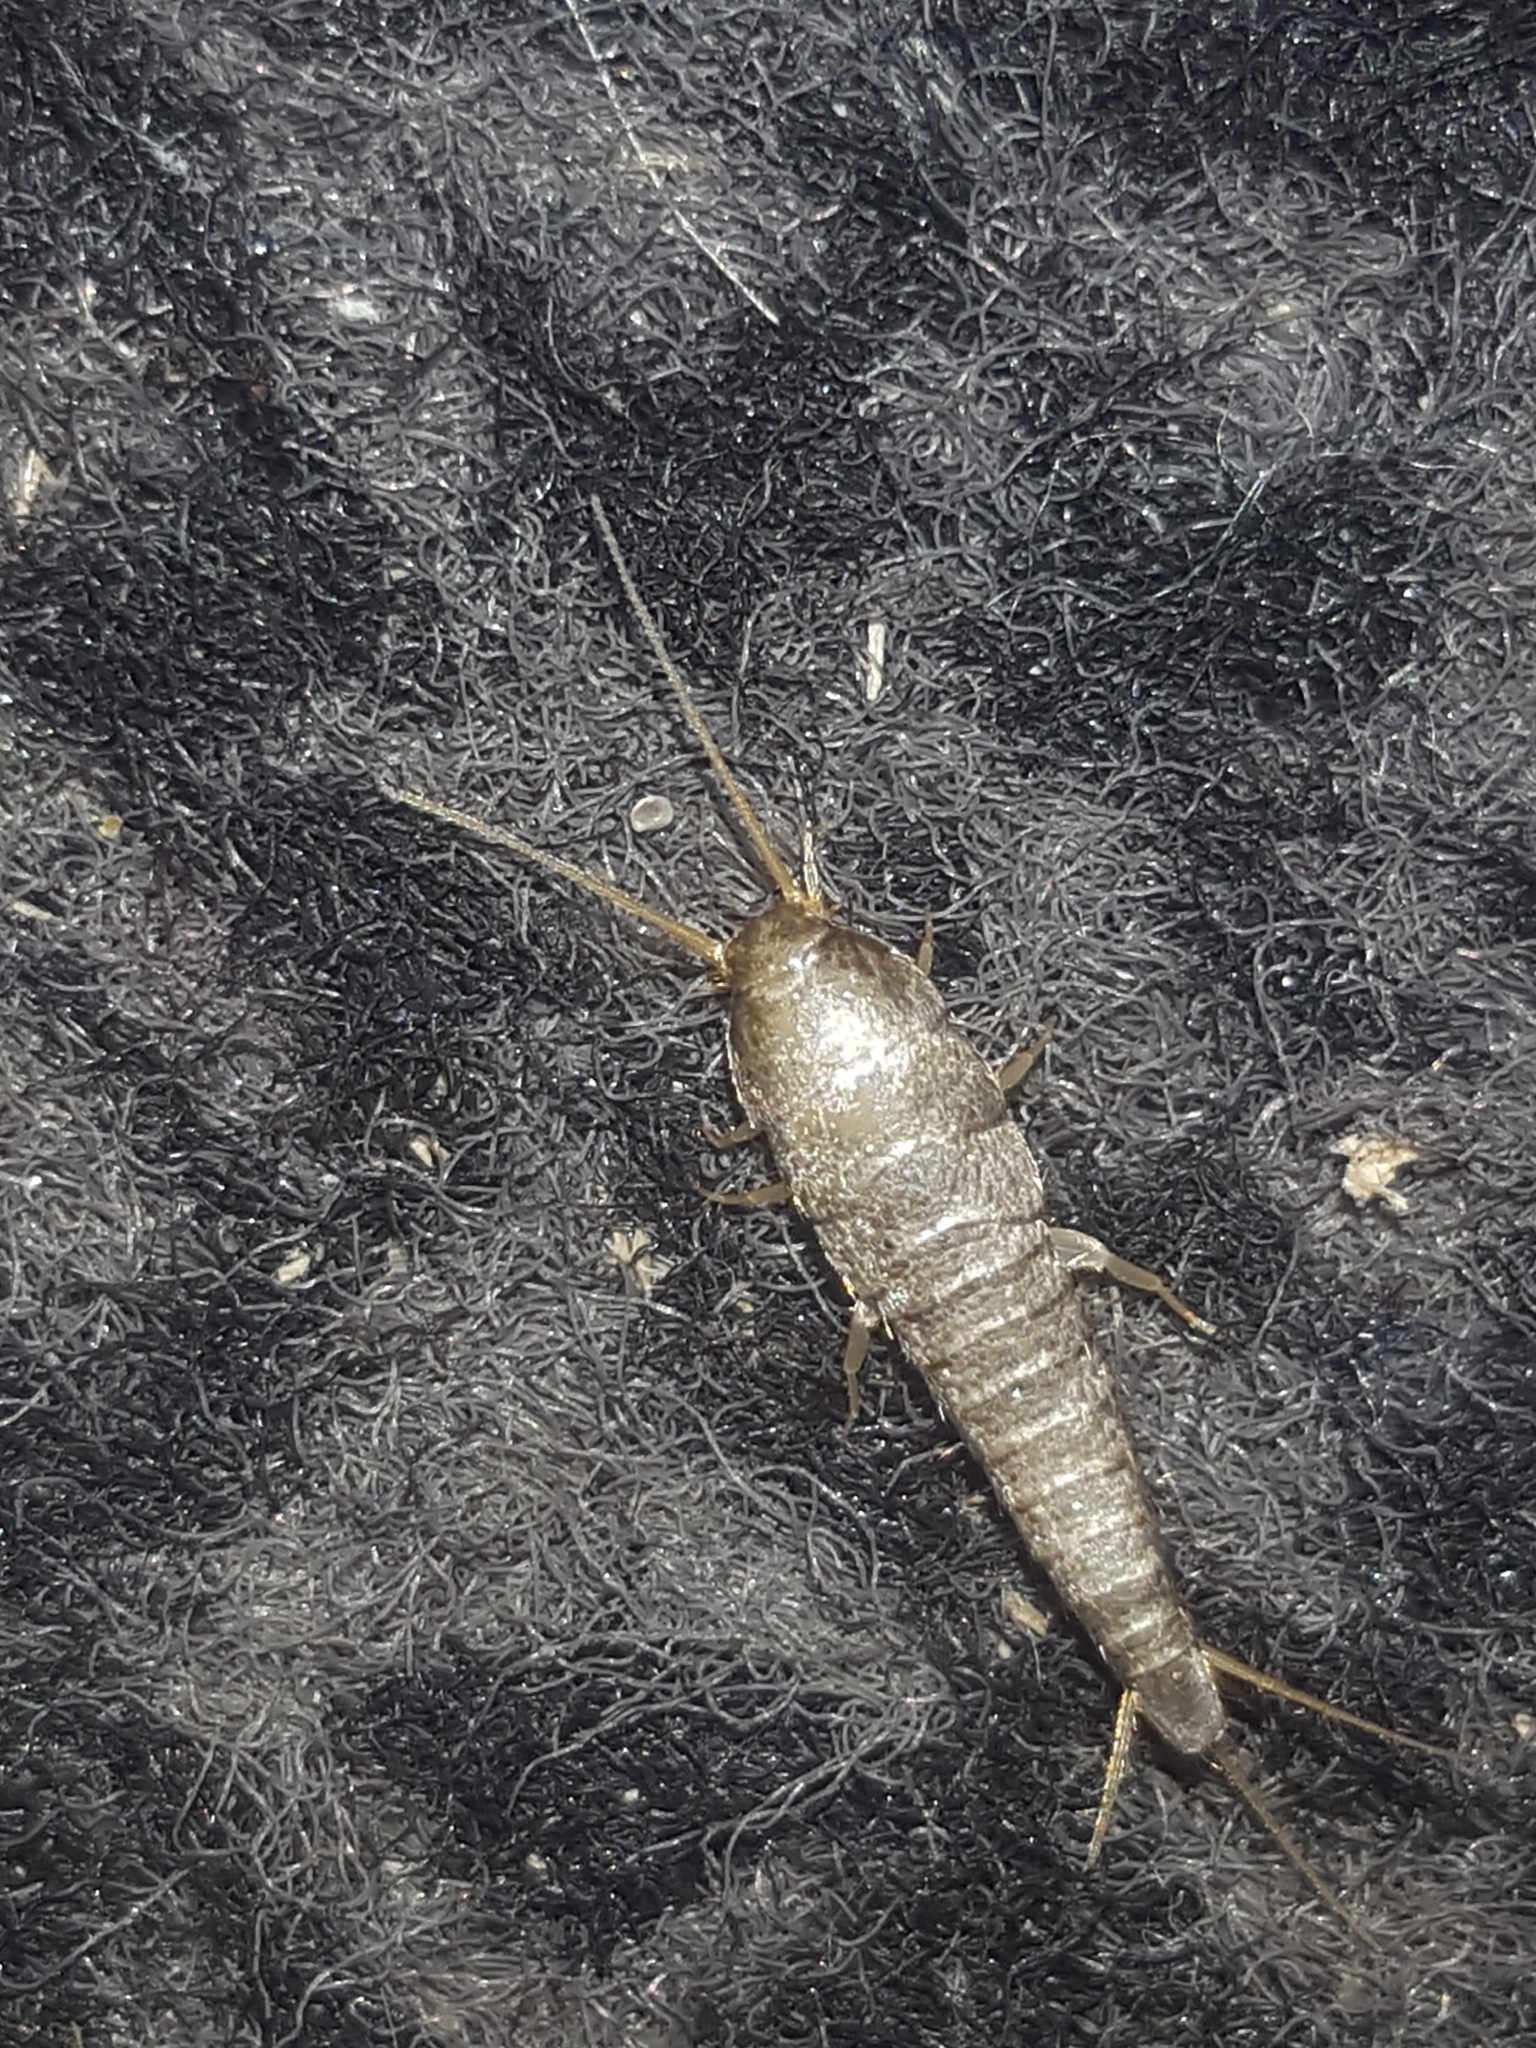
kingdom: Animalia
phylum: Arthropoda
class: Insecta
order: Zygentoma
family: Lepismatidae
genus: Lepisma
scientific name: Lepisma saccharinum
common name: Silverfish
